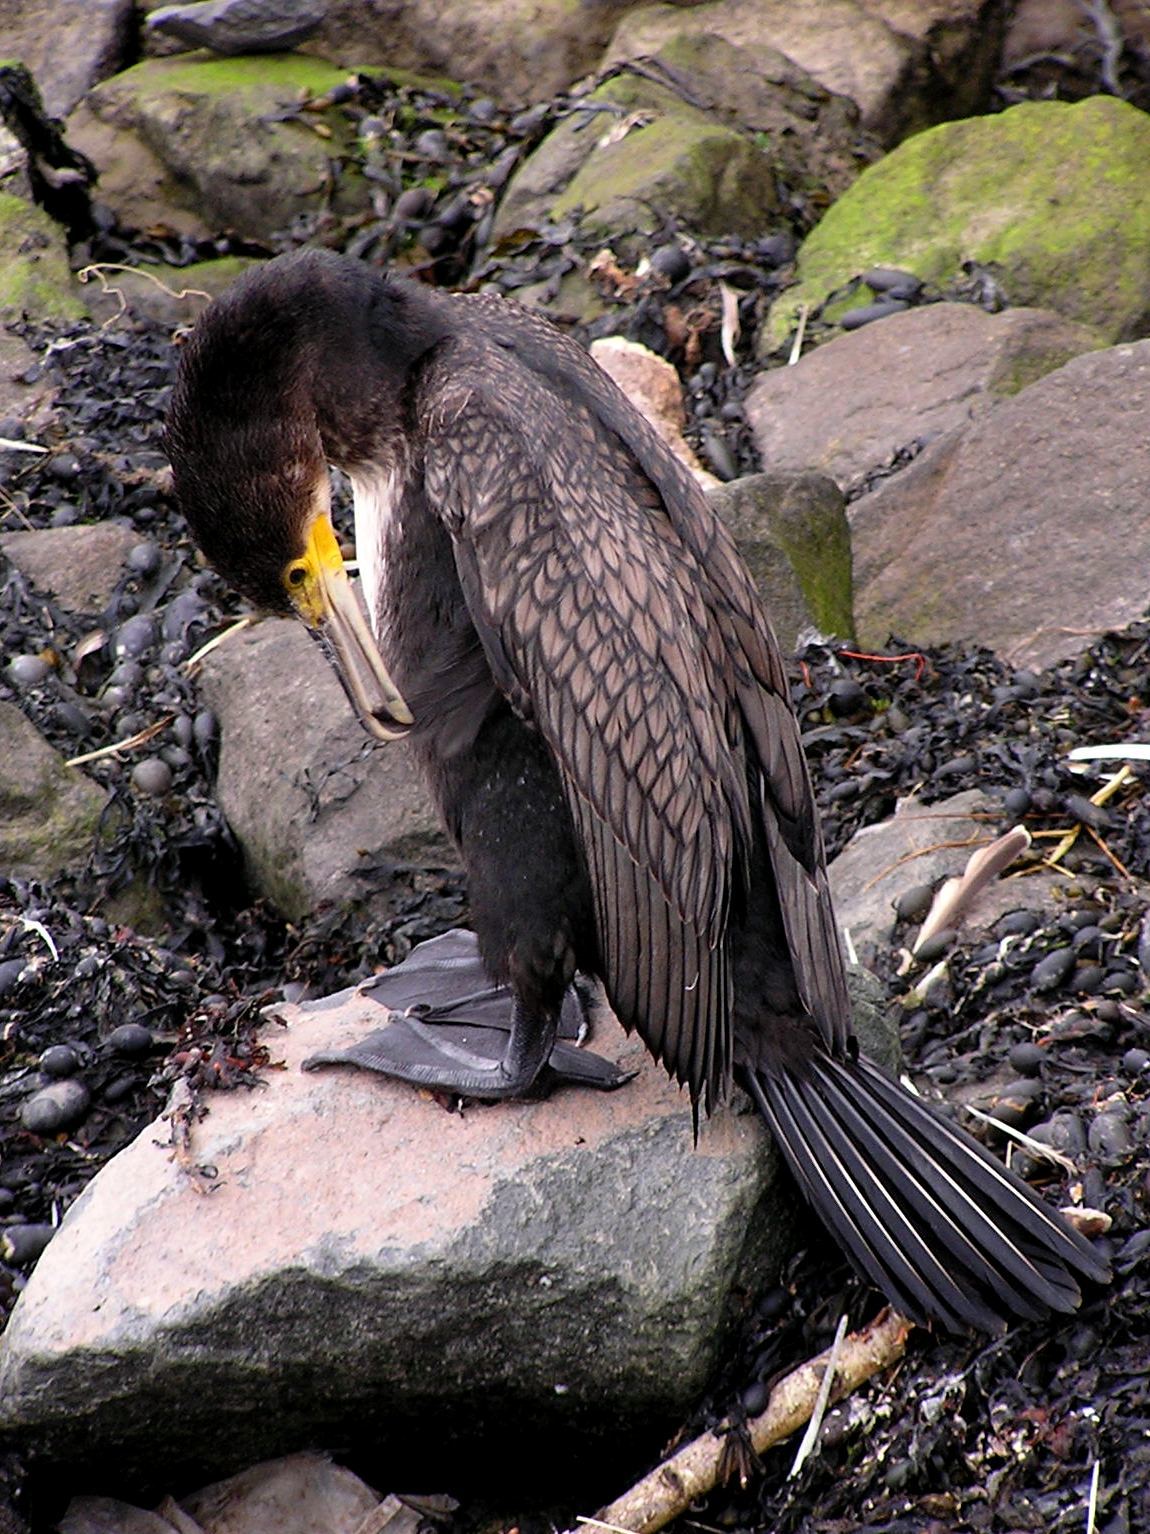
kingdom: Animalia
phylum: Chordata
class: Aves
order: Suliformes
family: Phalacrocoracidae
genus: Phalacrocorax
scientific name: Phalacrocorax carbo
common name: Great cormorant
